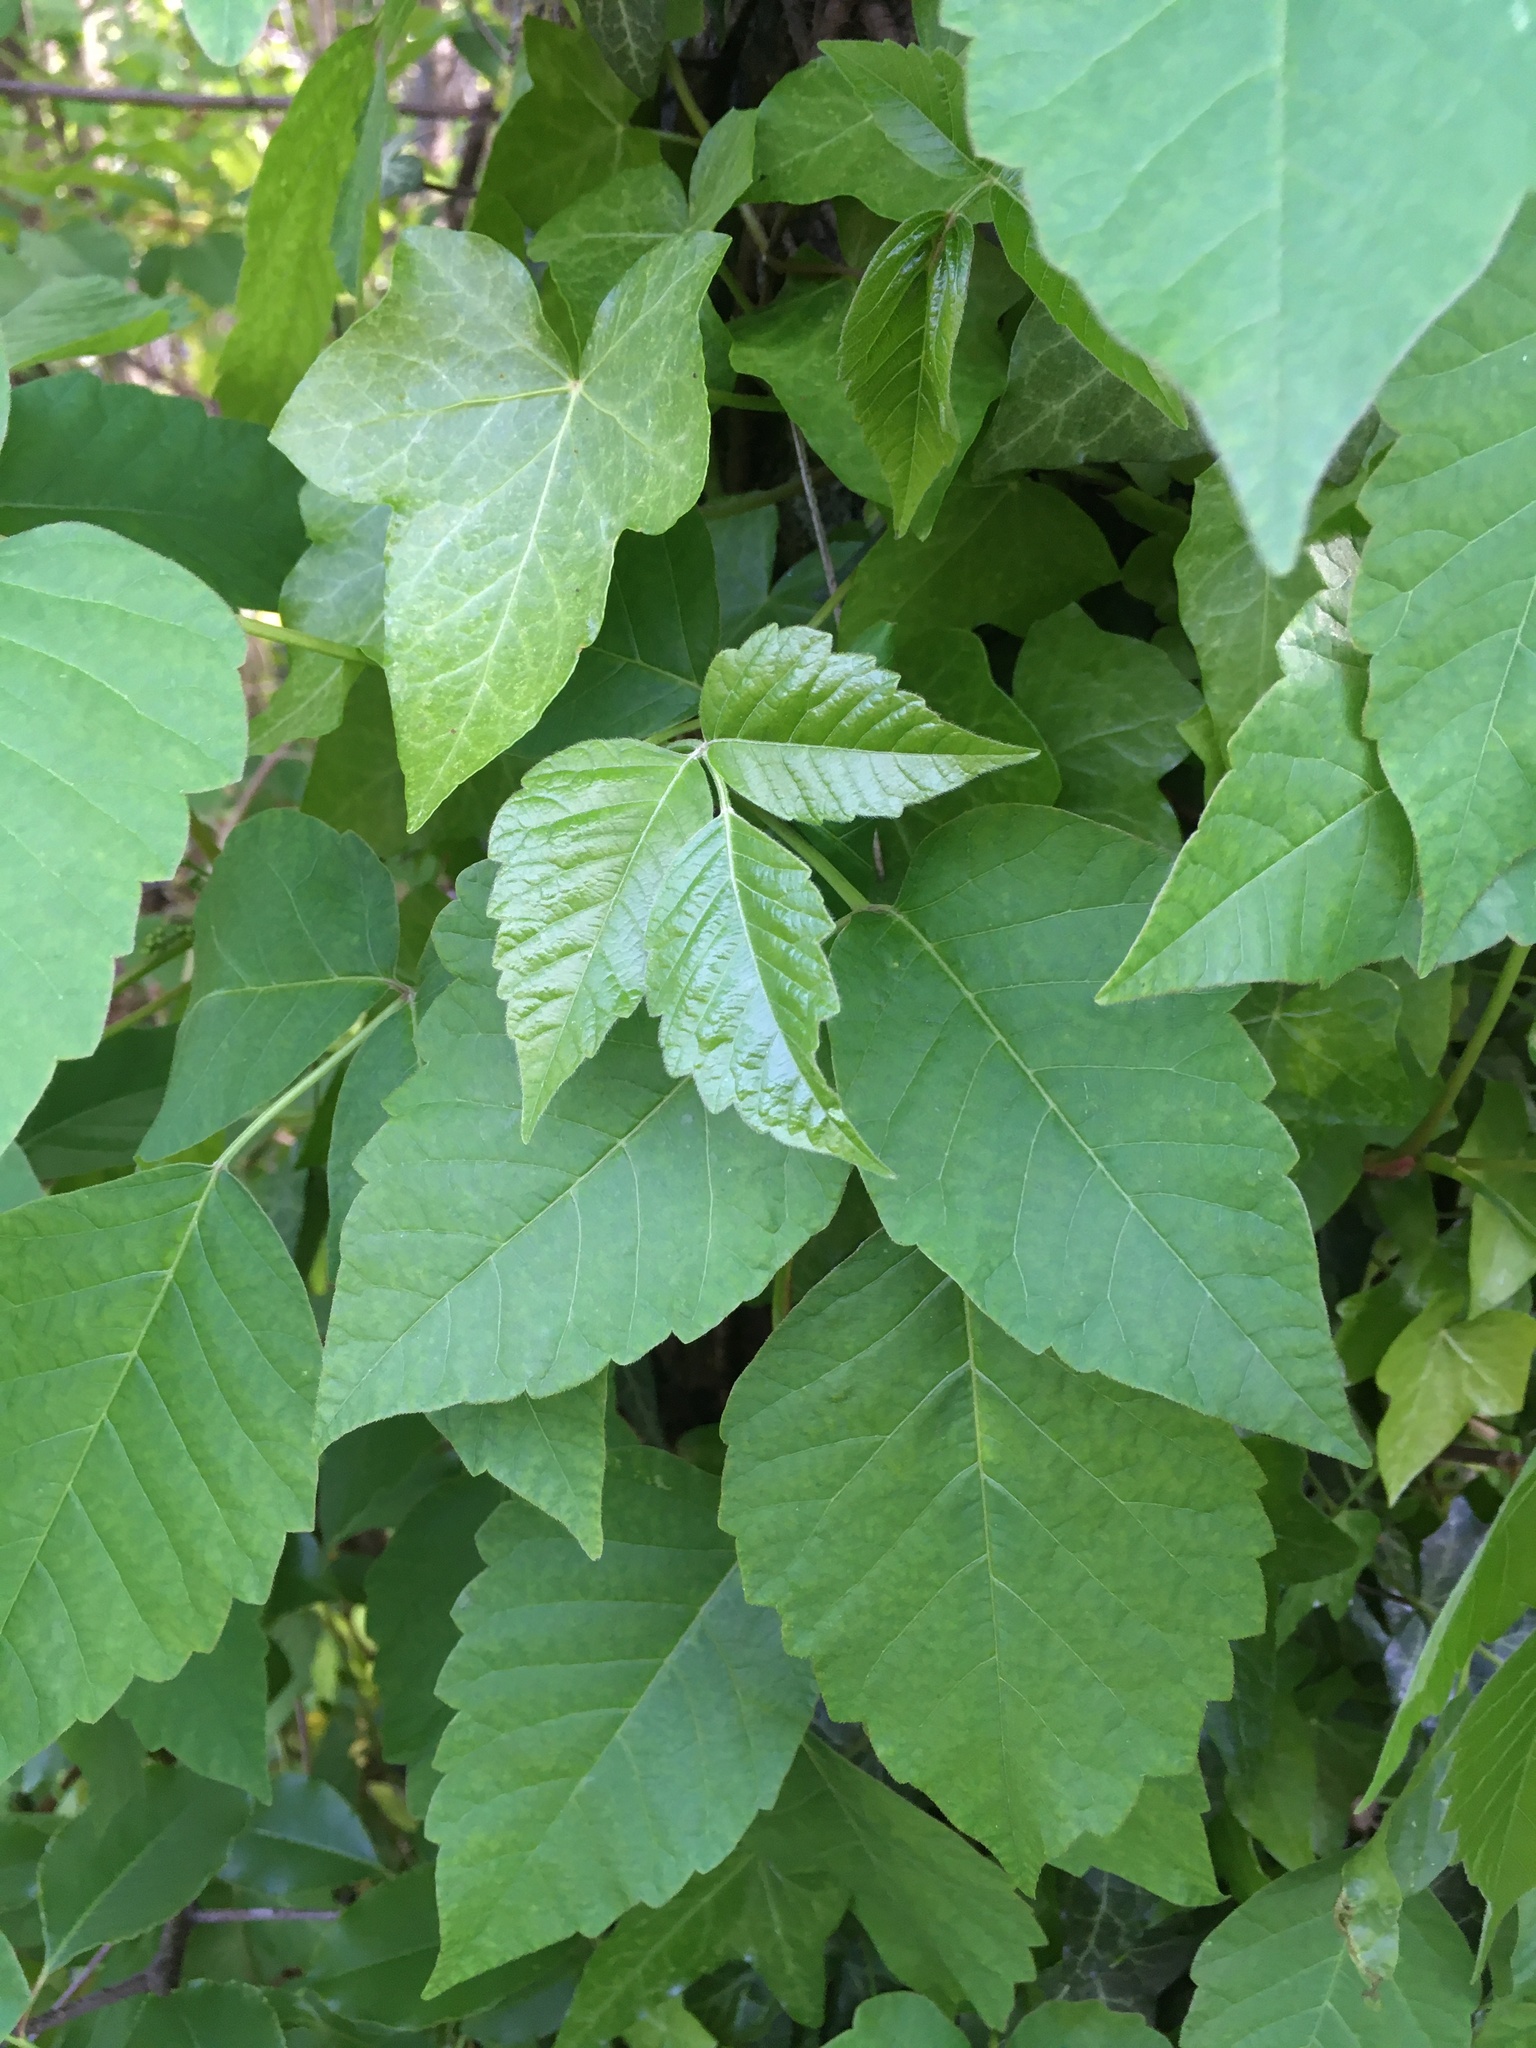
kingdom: Plantae
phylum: Tracheophyta
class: Magnoliopsida
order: Sapindales
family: Anacardiaceae
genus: Toxicodendron
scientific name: Toxicodendron radicans
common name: Poison ivy
